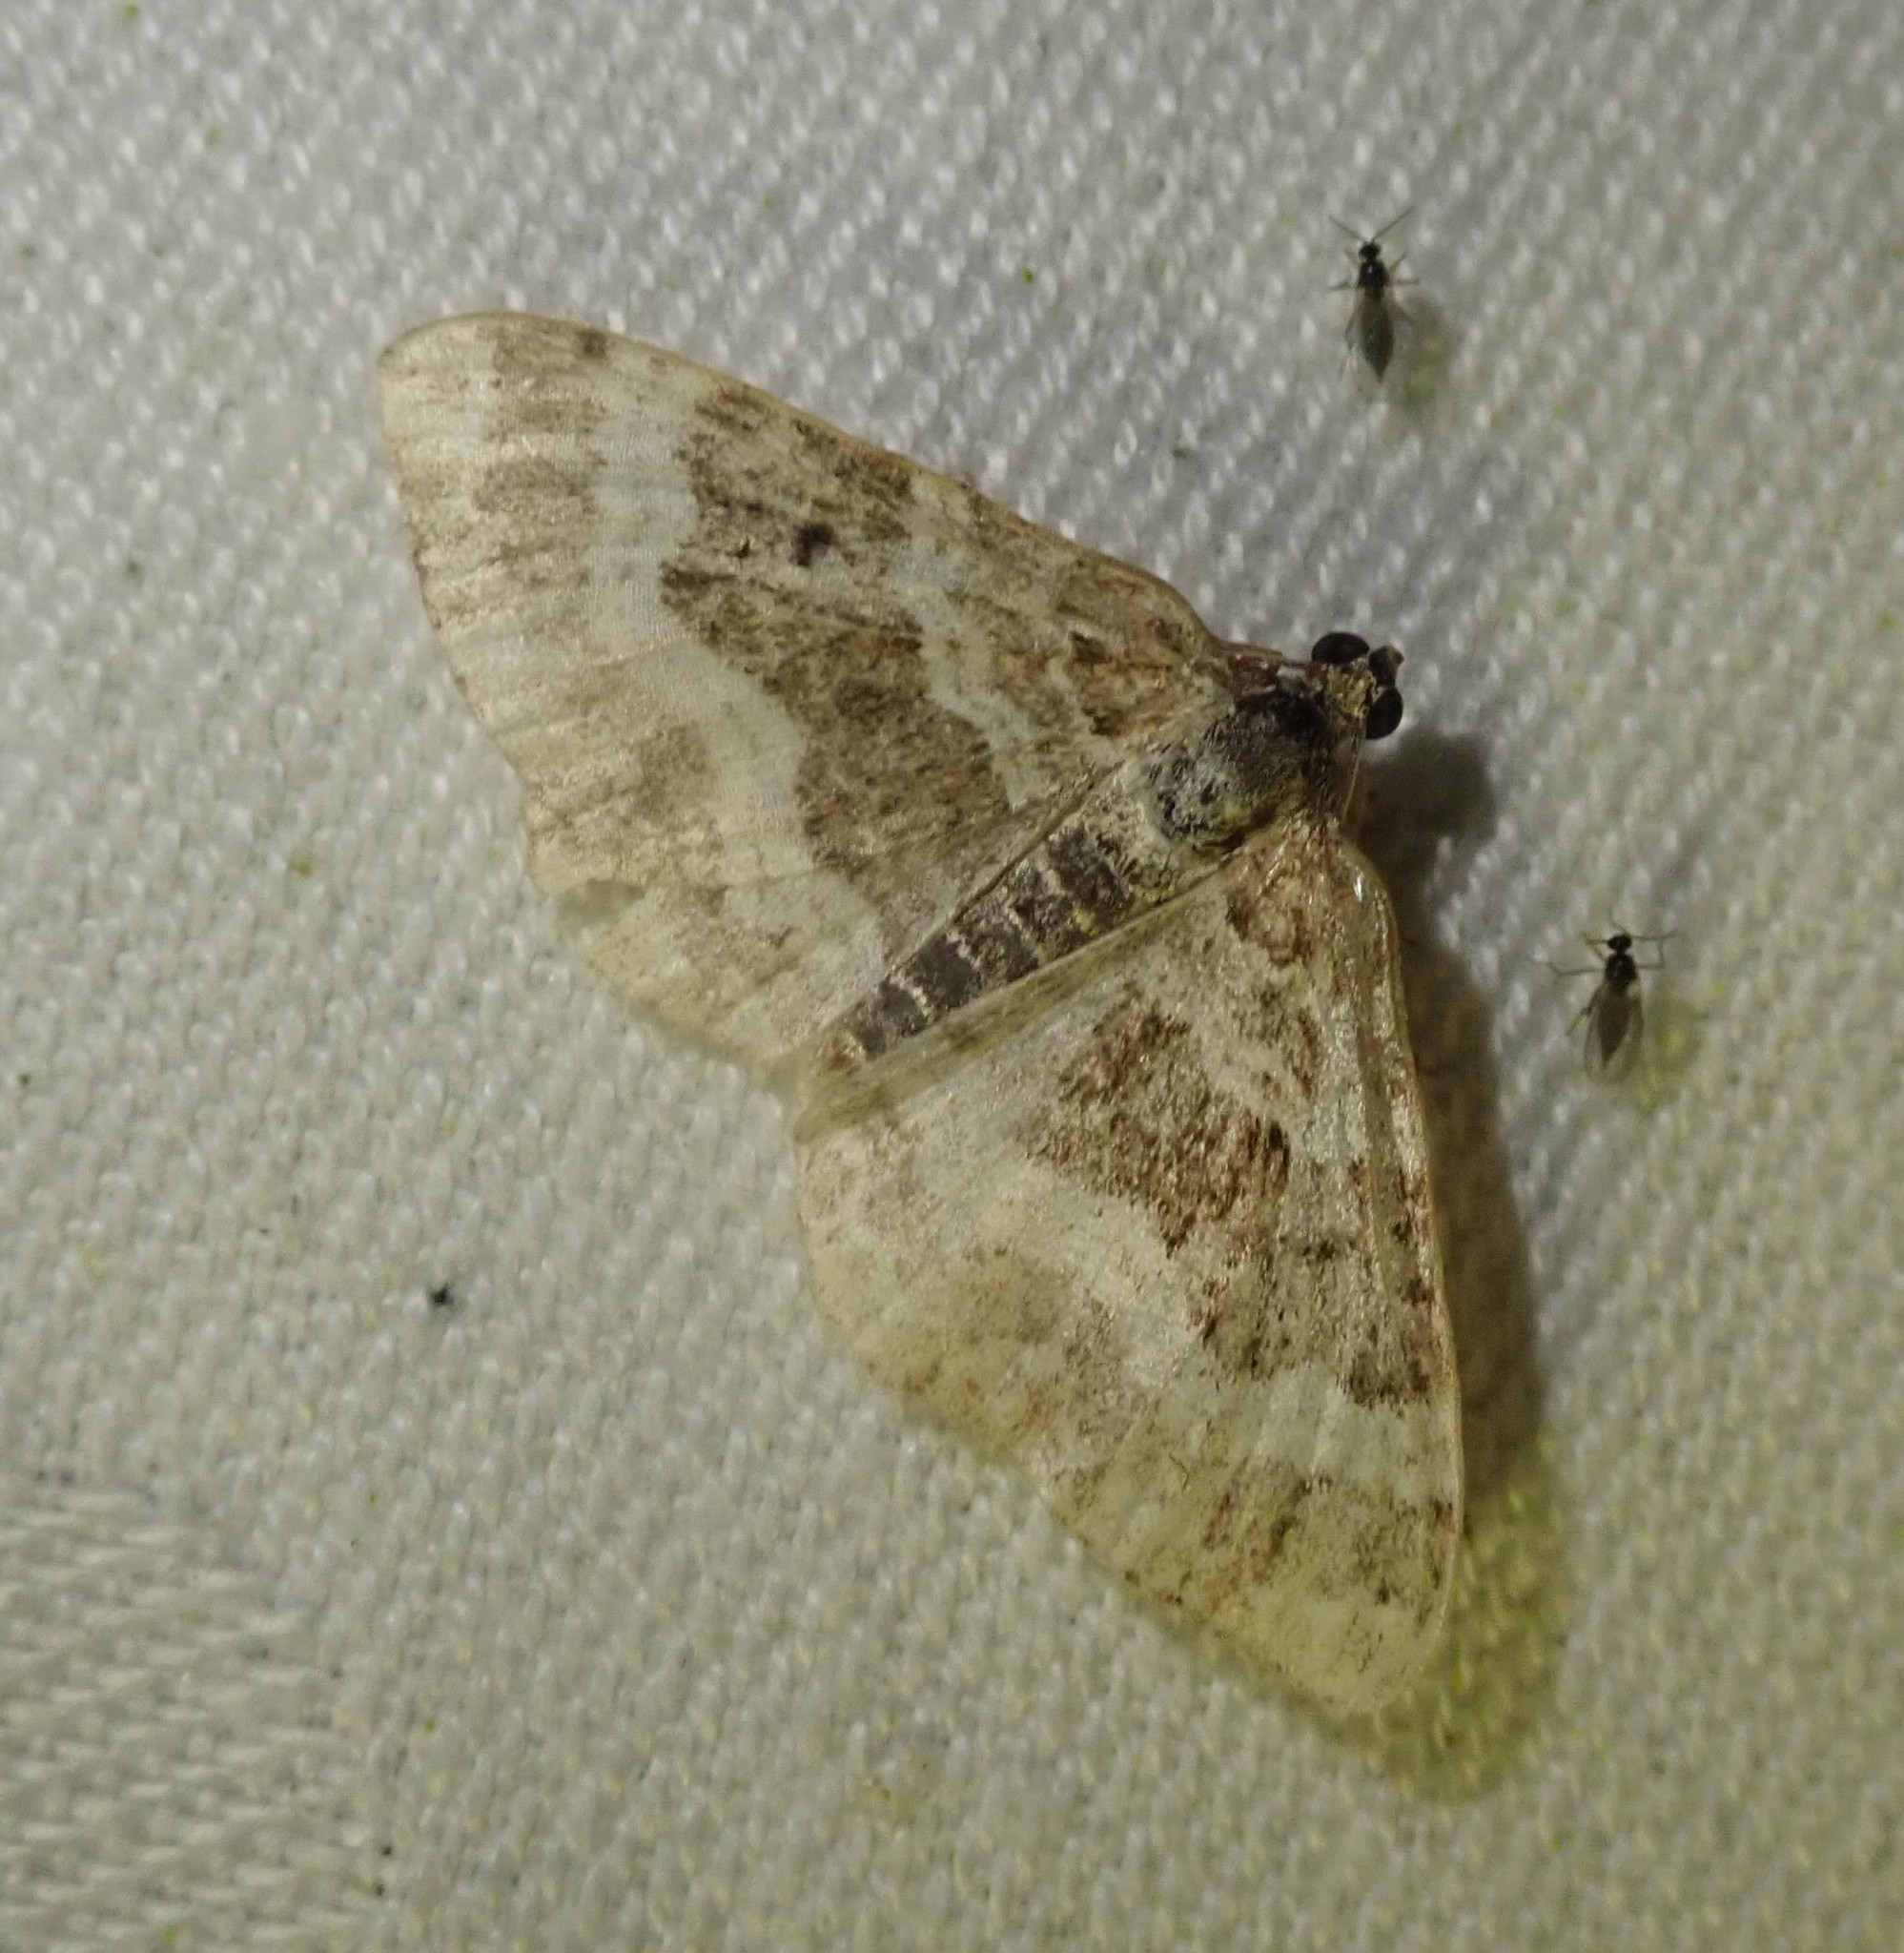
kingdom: Animalia
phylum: Arthropoda
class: Insecta
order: Lepidoptera
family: Geometridae
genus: Epirrhoe
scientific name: Epirrhoe alternata
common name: Common carpet
